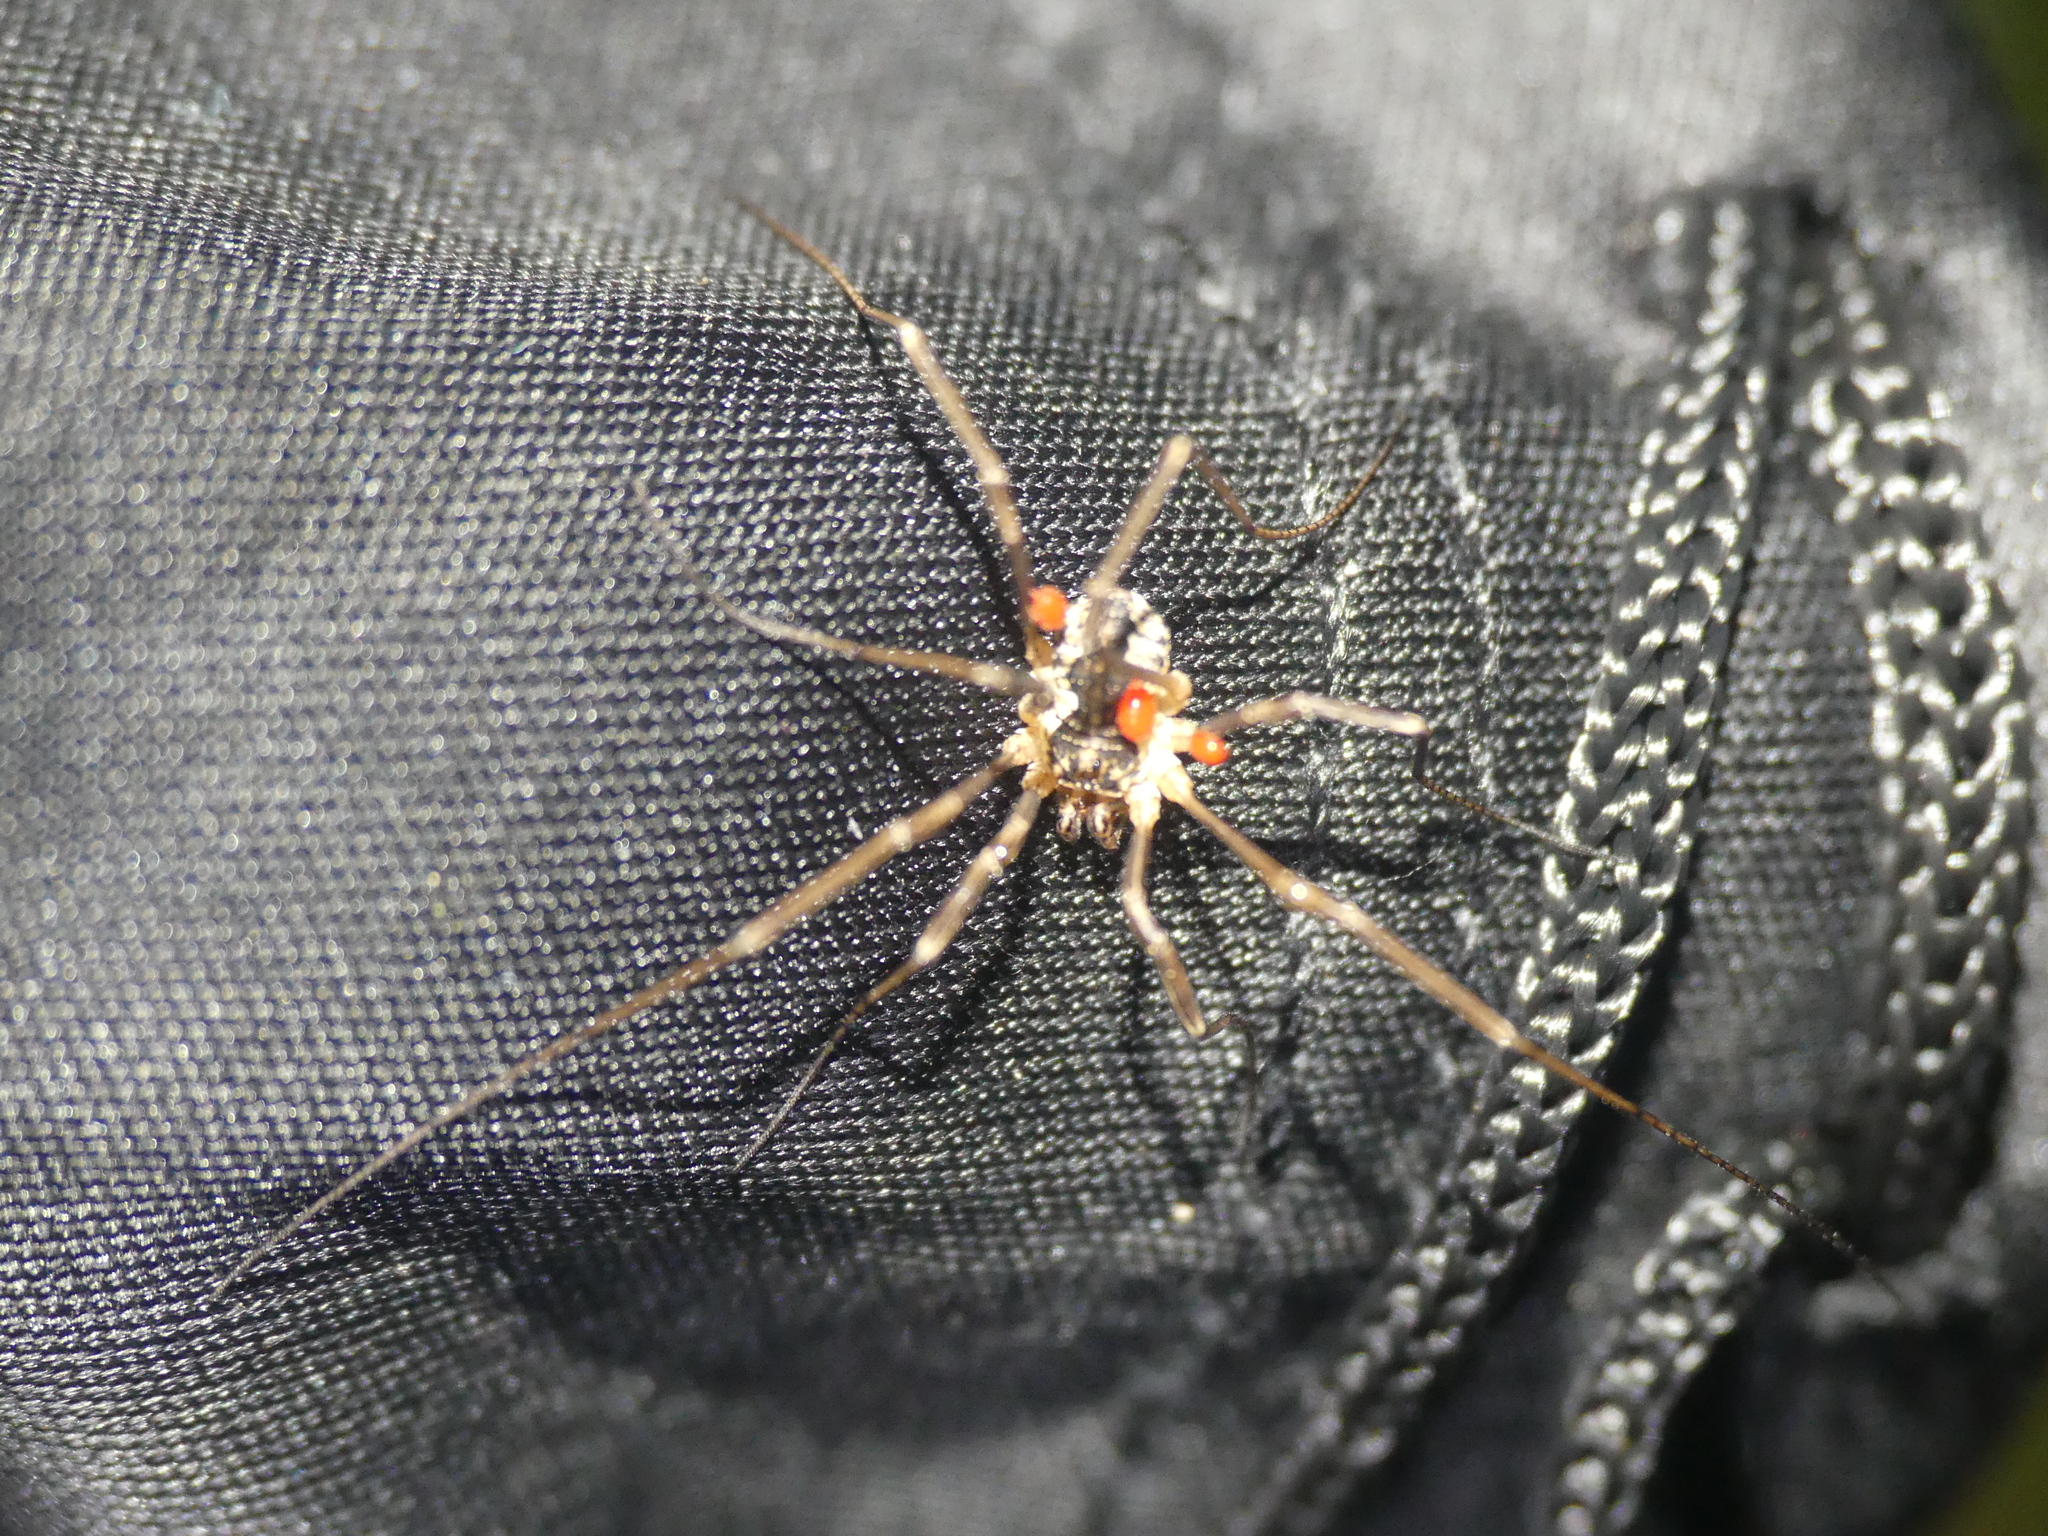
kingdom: Animalia
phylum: Arthropoda
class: Arachnida
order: Opiliones
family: Phalangiidae
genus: Mitopus
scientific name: Mitopus morio
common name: Saddleback harvestman
